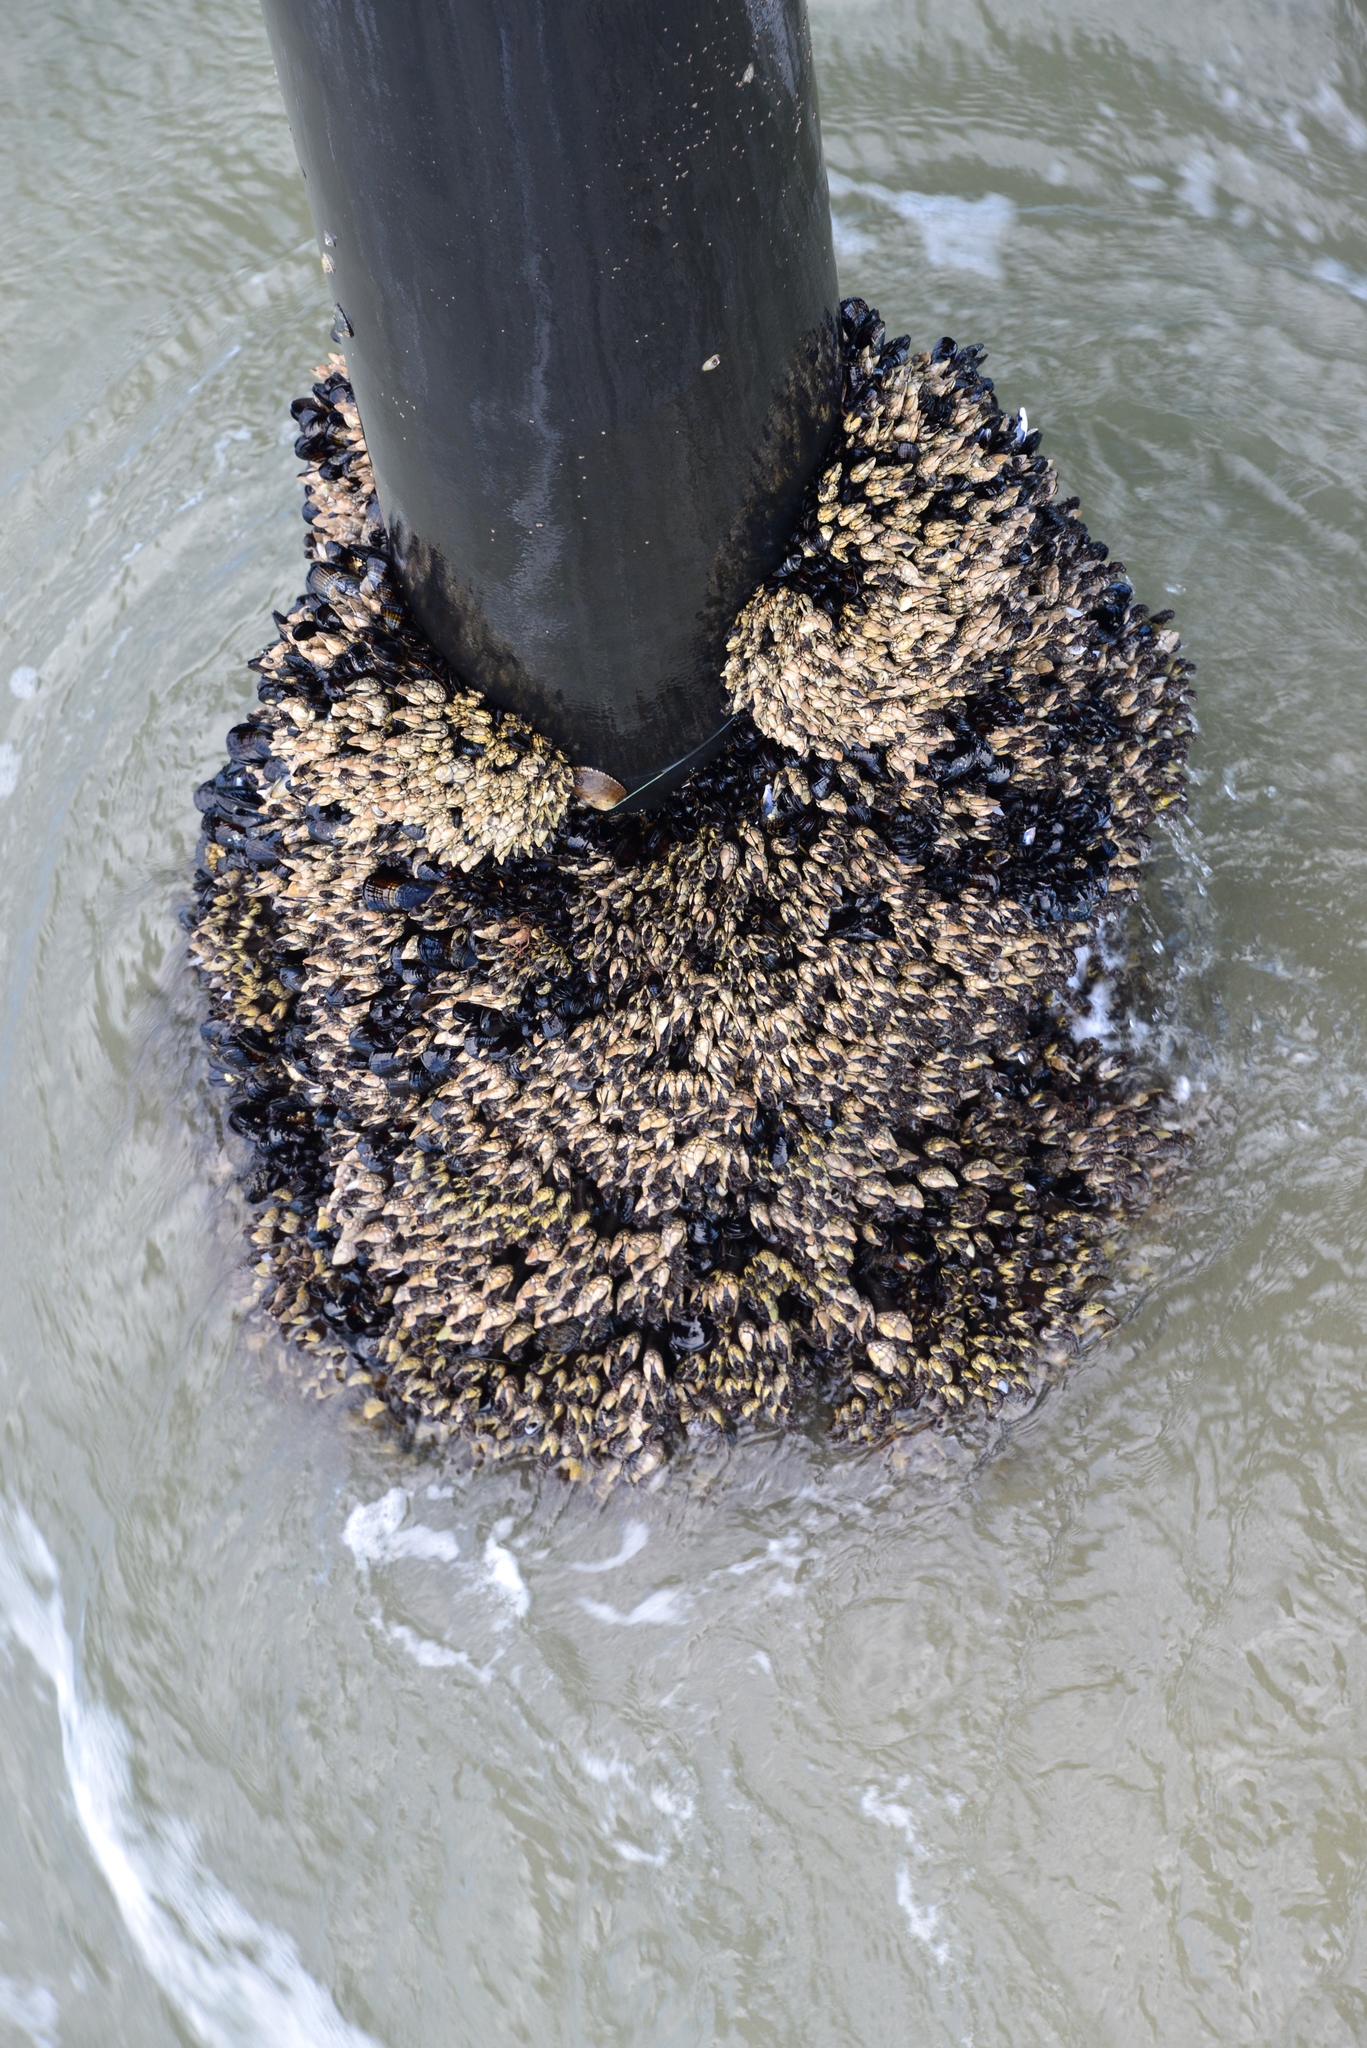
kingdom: Animalia
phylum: Mollusca
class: Bivalvia
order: Mytilida
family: Mytilidae
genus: Mytilus
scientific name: Mytilus californianus
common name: California mussel
